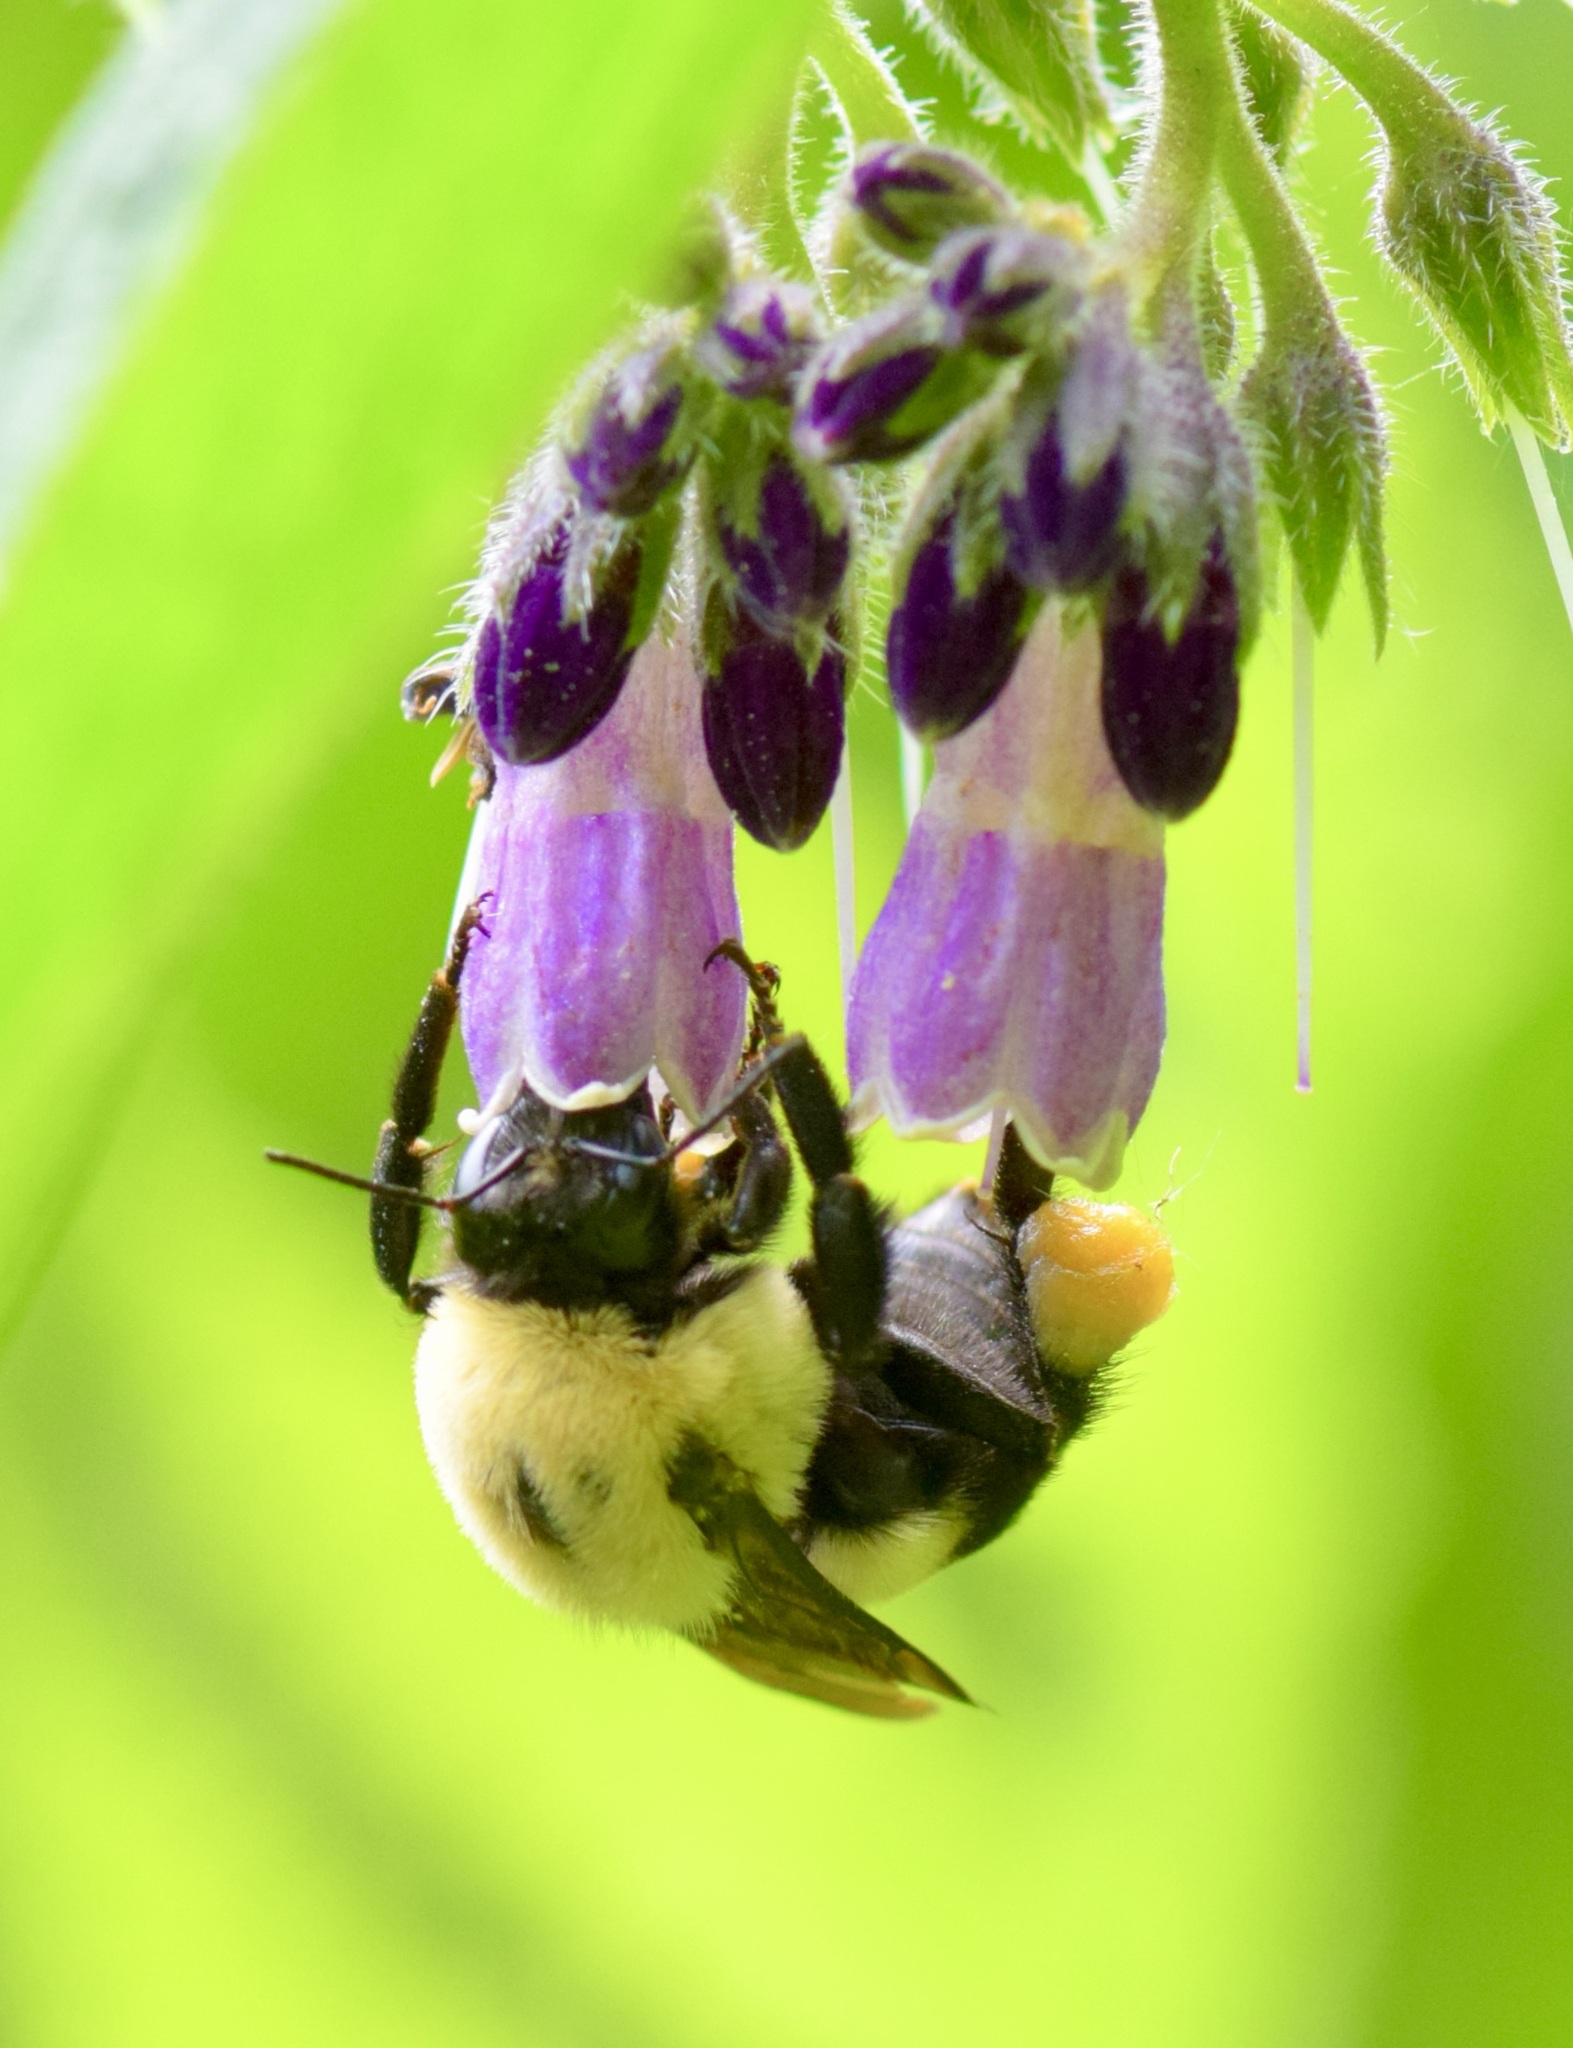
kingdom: Animalia
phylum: Arthropoda
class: Insecta
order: Hymenoptera
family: Apidae
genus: Bombus
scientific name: Bombus griseocollis
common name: Brown-belted bumble bee
